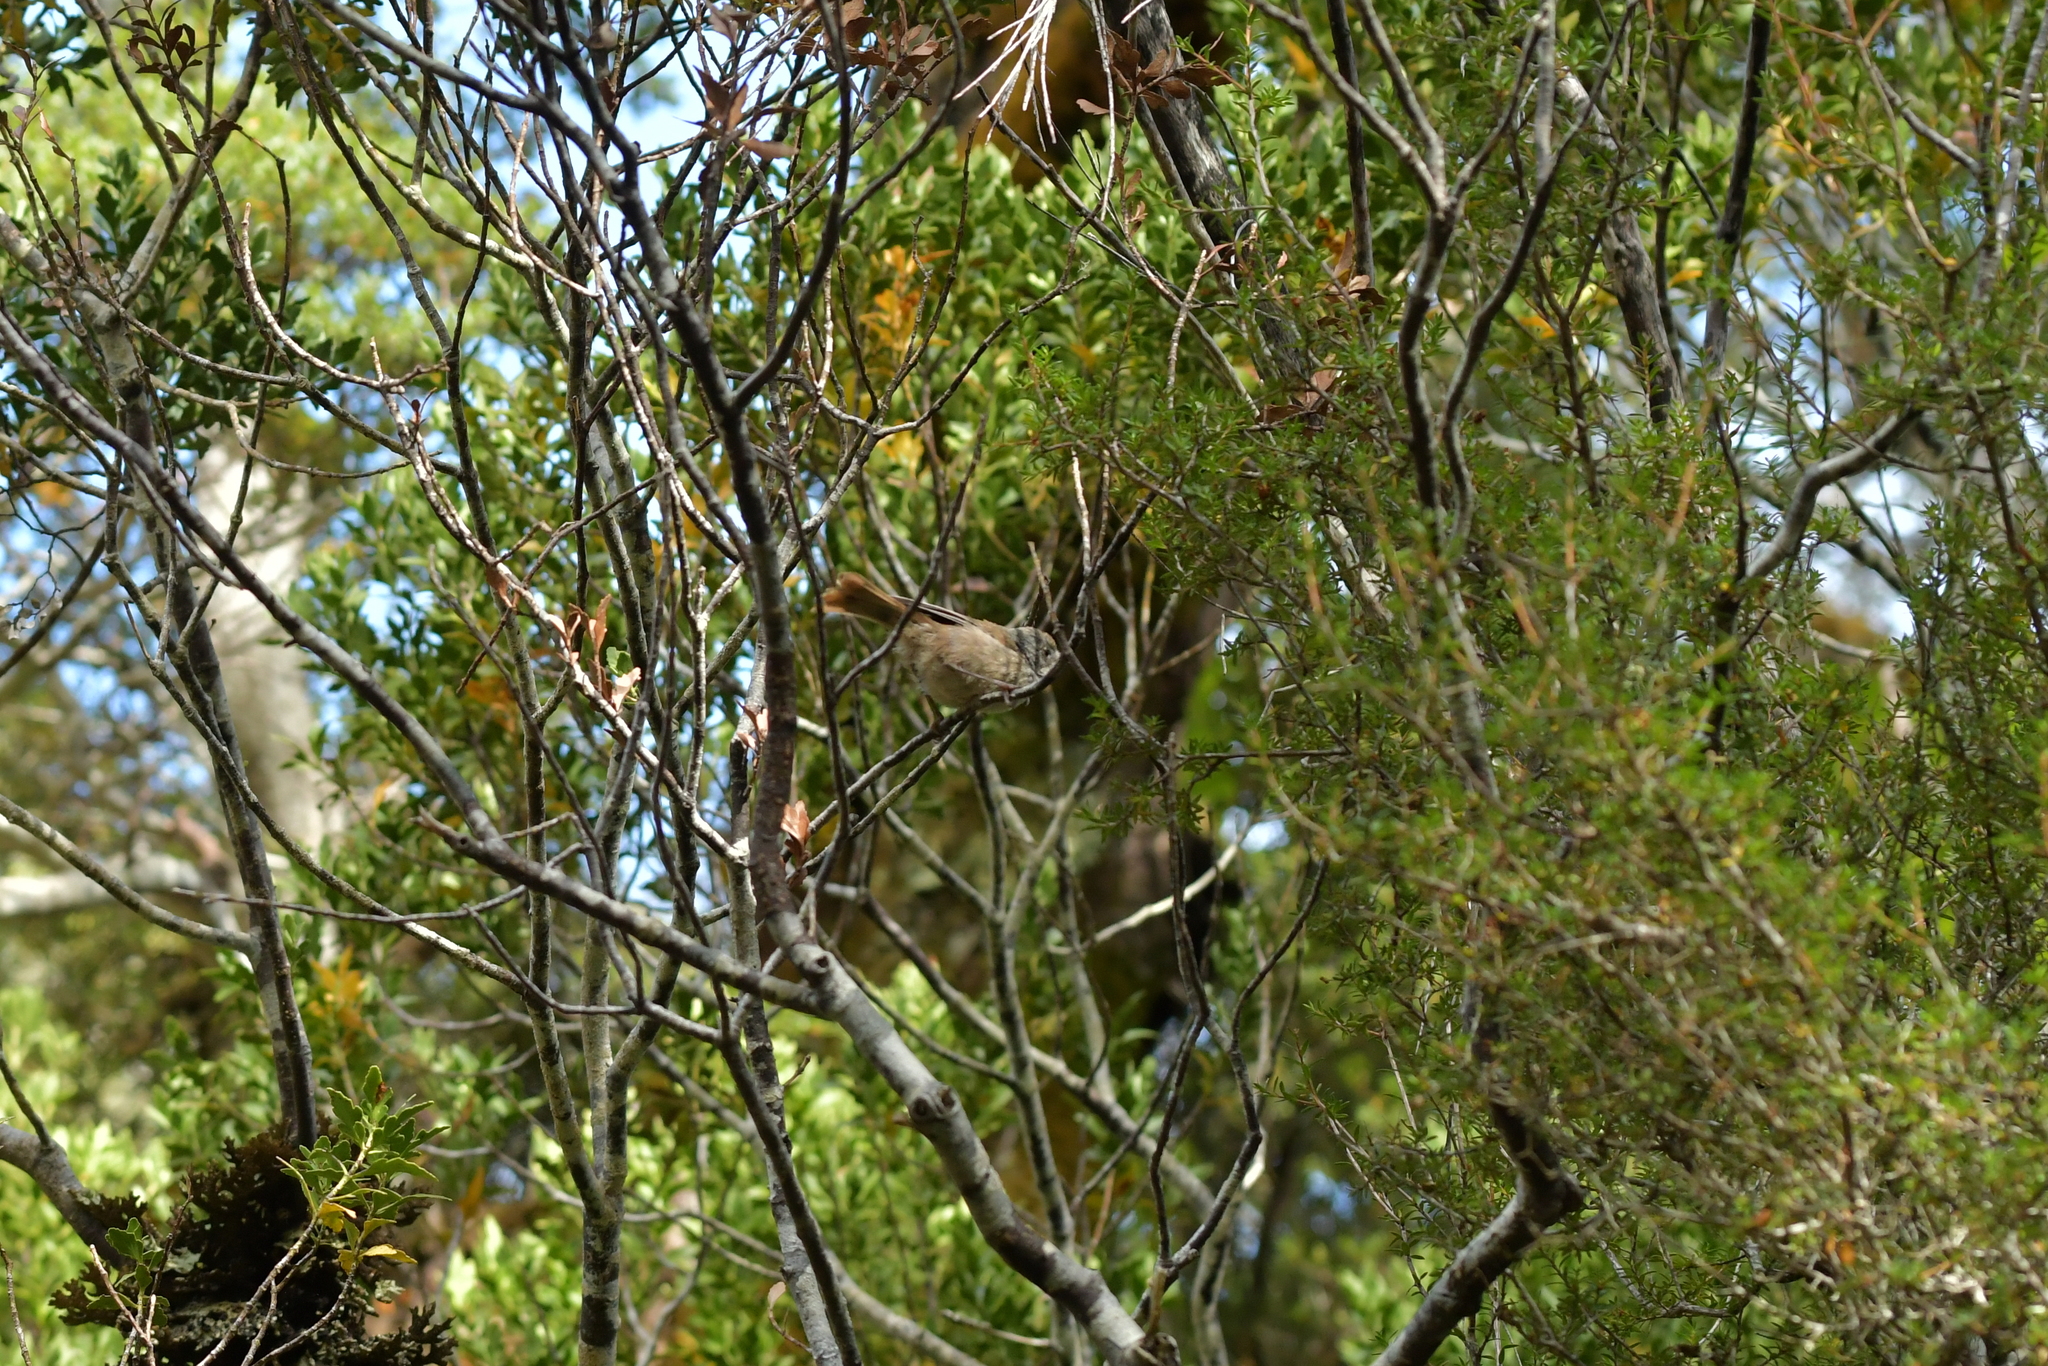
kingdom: Animalia
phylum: Chordata
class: Aves
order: Passeriformes
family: Acanthizidae
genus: Finschia
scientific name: Finschia novaeseelandiae
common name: Pipipi
